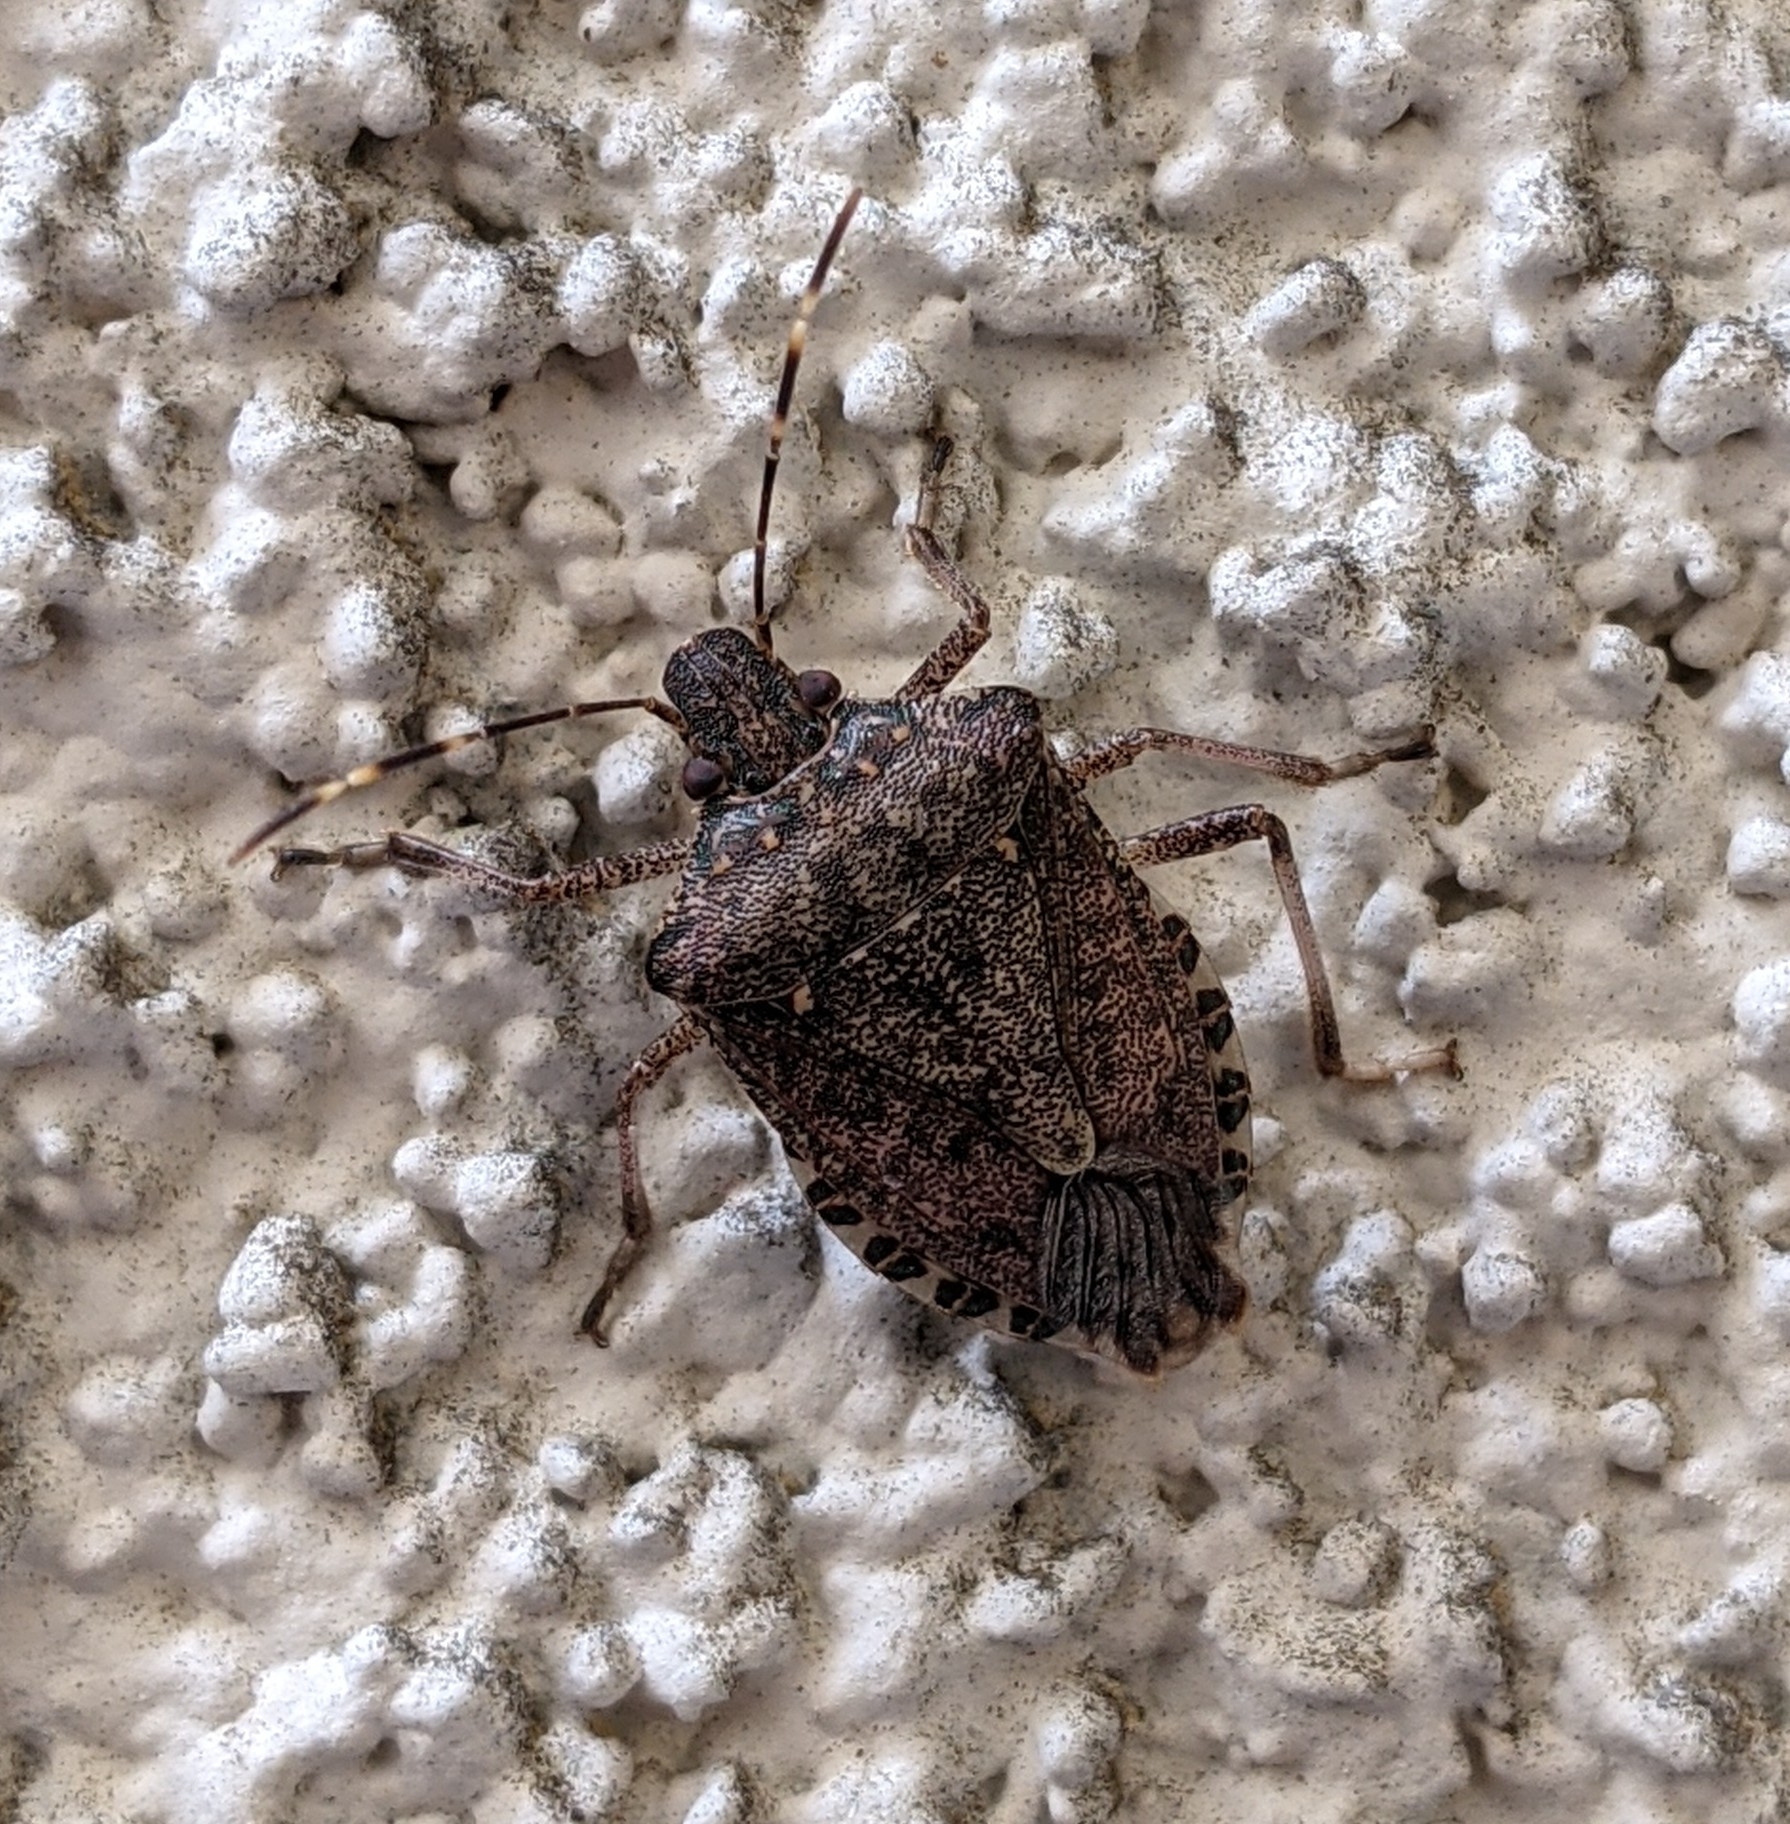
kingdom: Animalia
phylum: Arthropoda
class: Insecta
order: Hemiptera
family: Pentatomidae
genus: Halyomorpha
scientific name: Halyomorpha halys
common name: Brown marmorated stink bug
